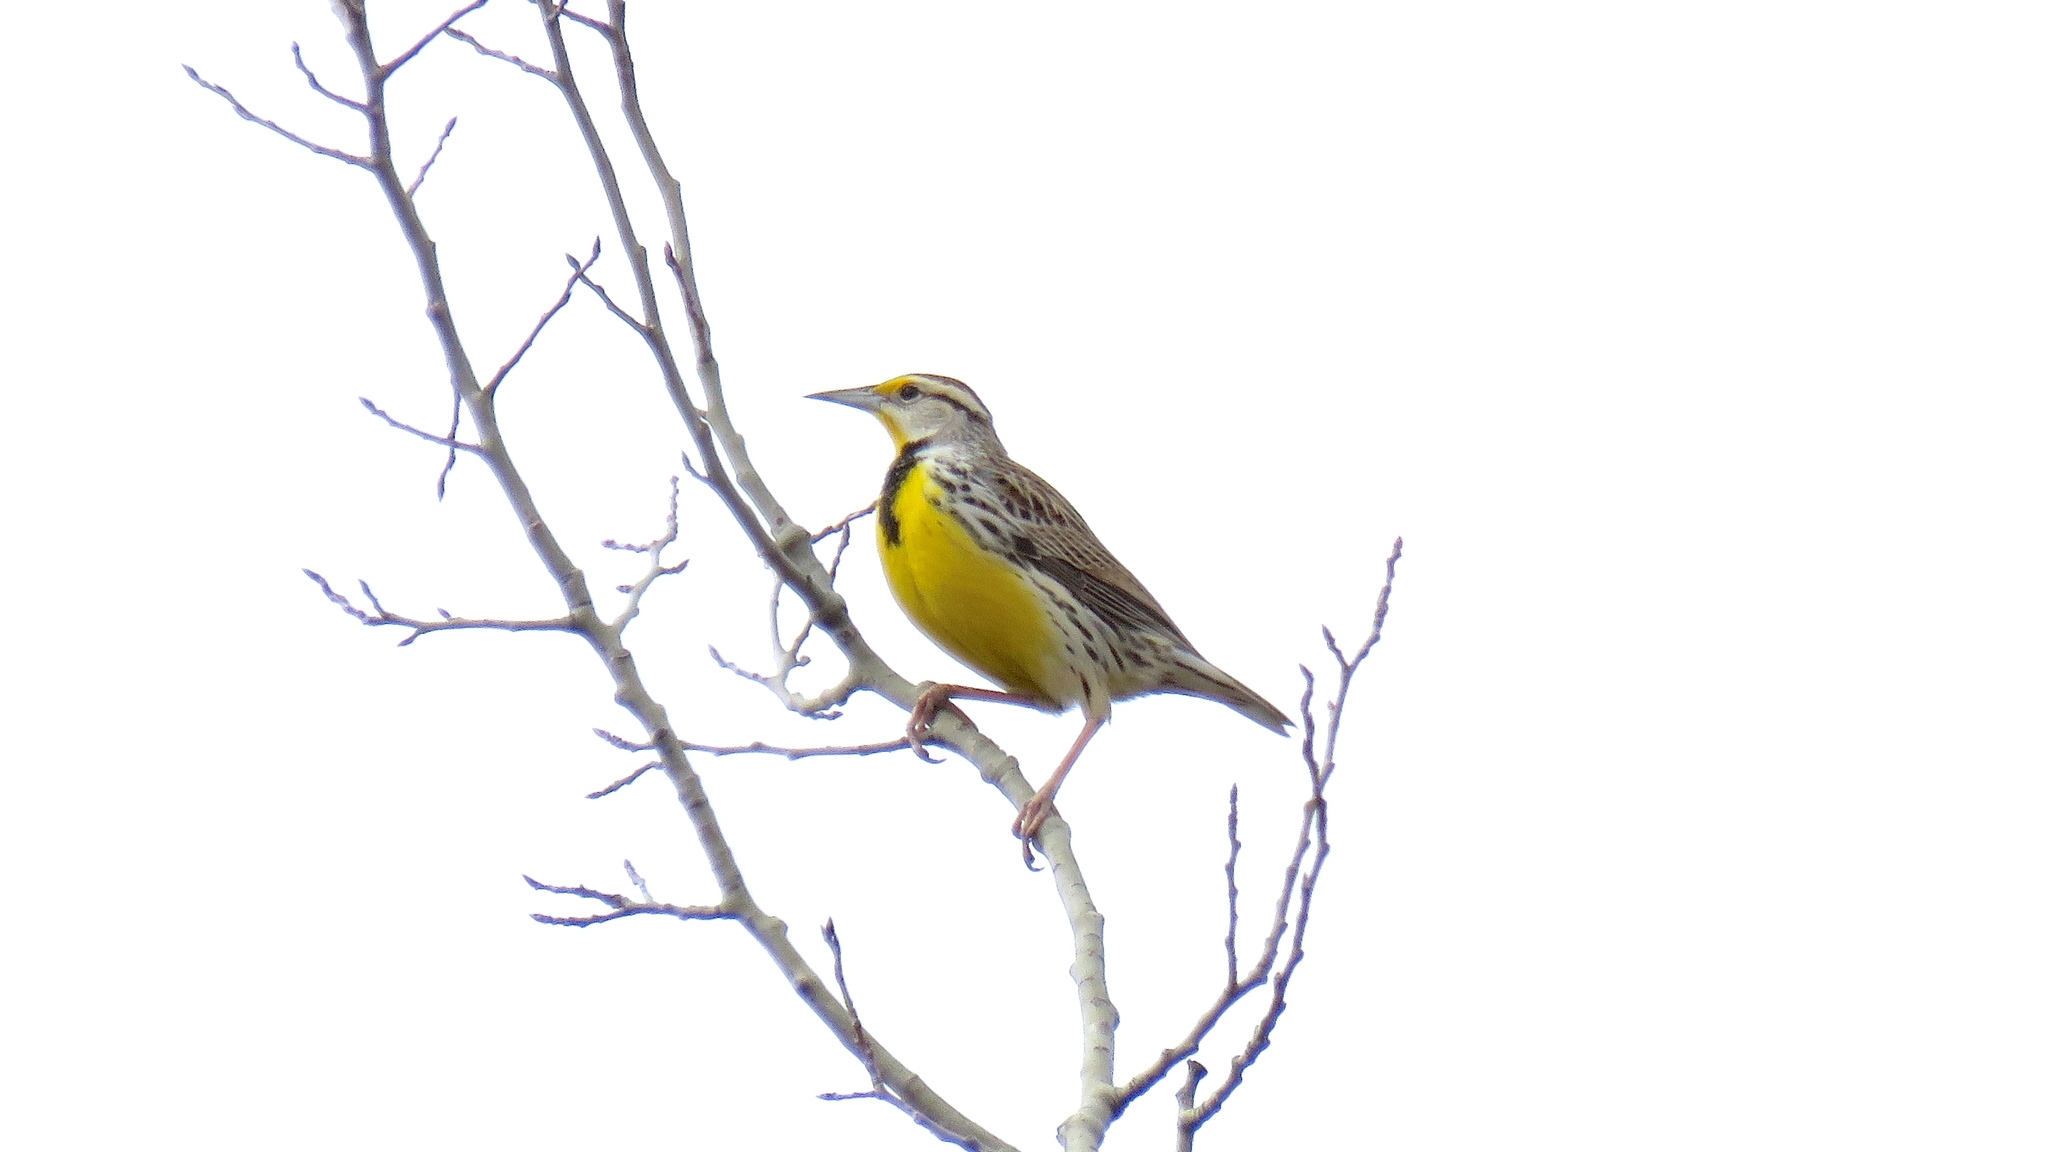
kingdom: Animalia
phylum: Chordata
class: Aves
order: Passeriformes
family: Icteridae
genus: Sturnella
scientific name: Sturnella magna
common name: Eastern meadowlark
